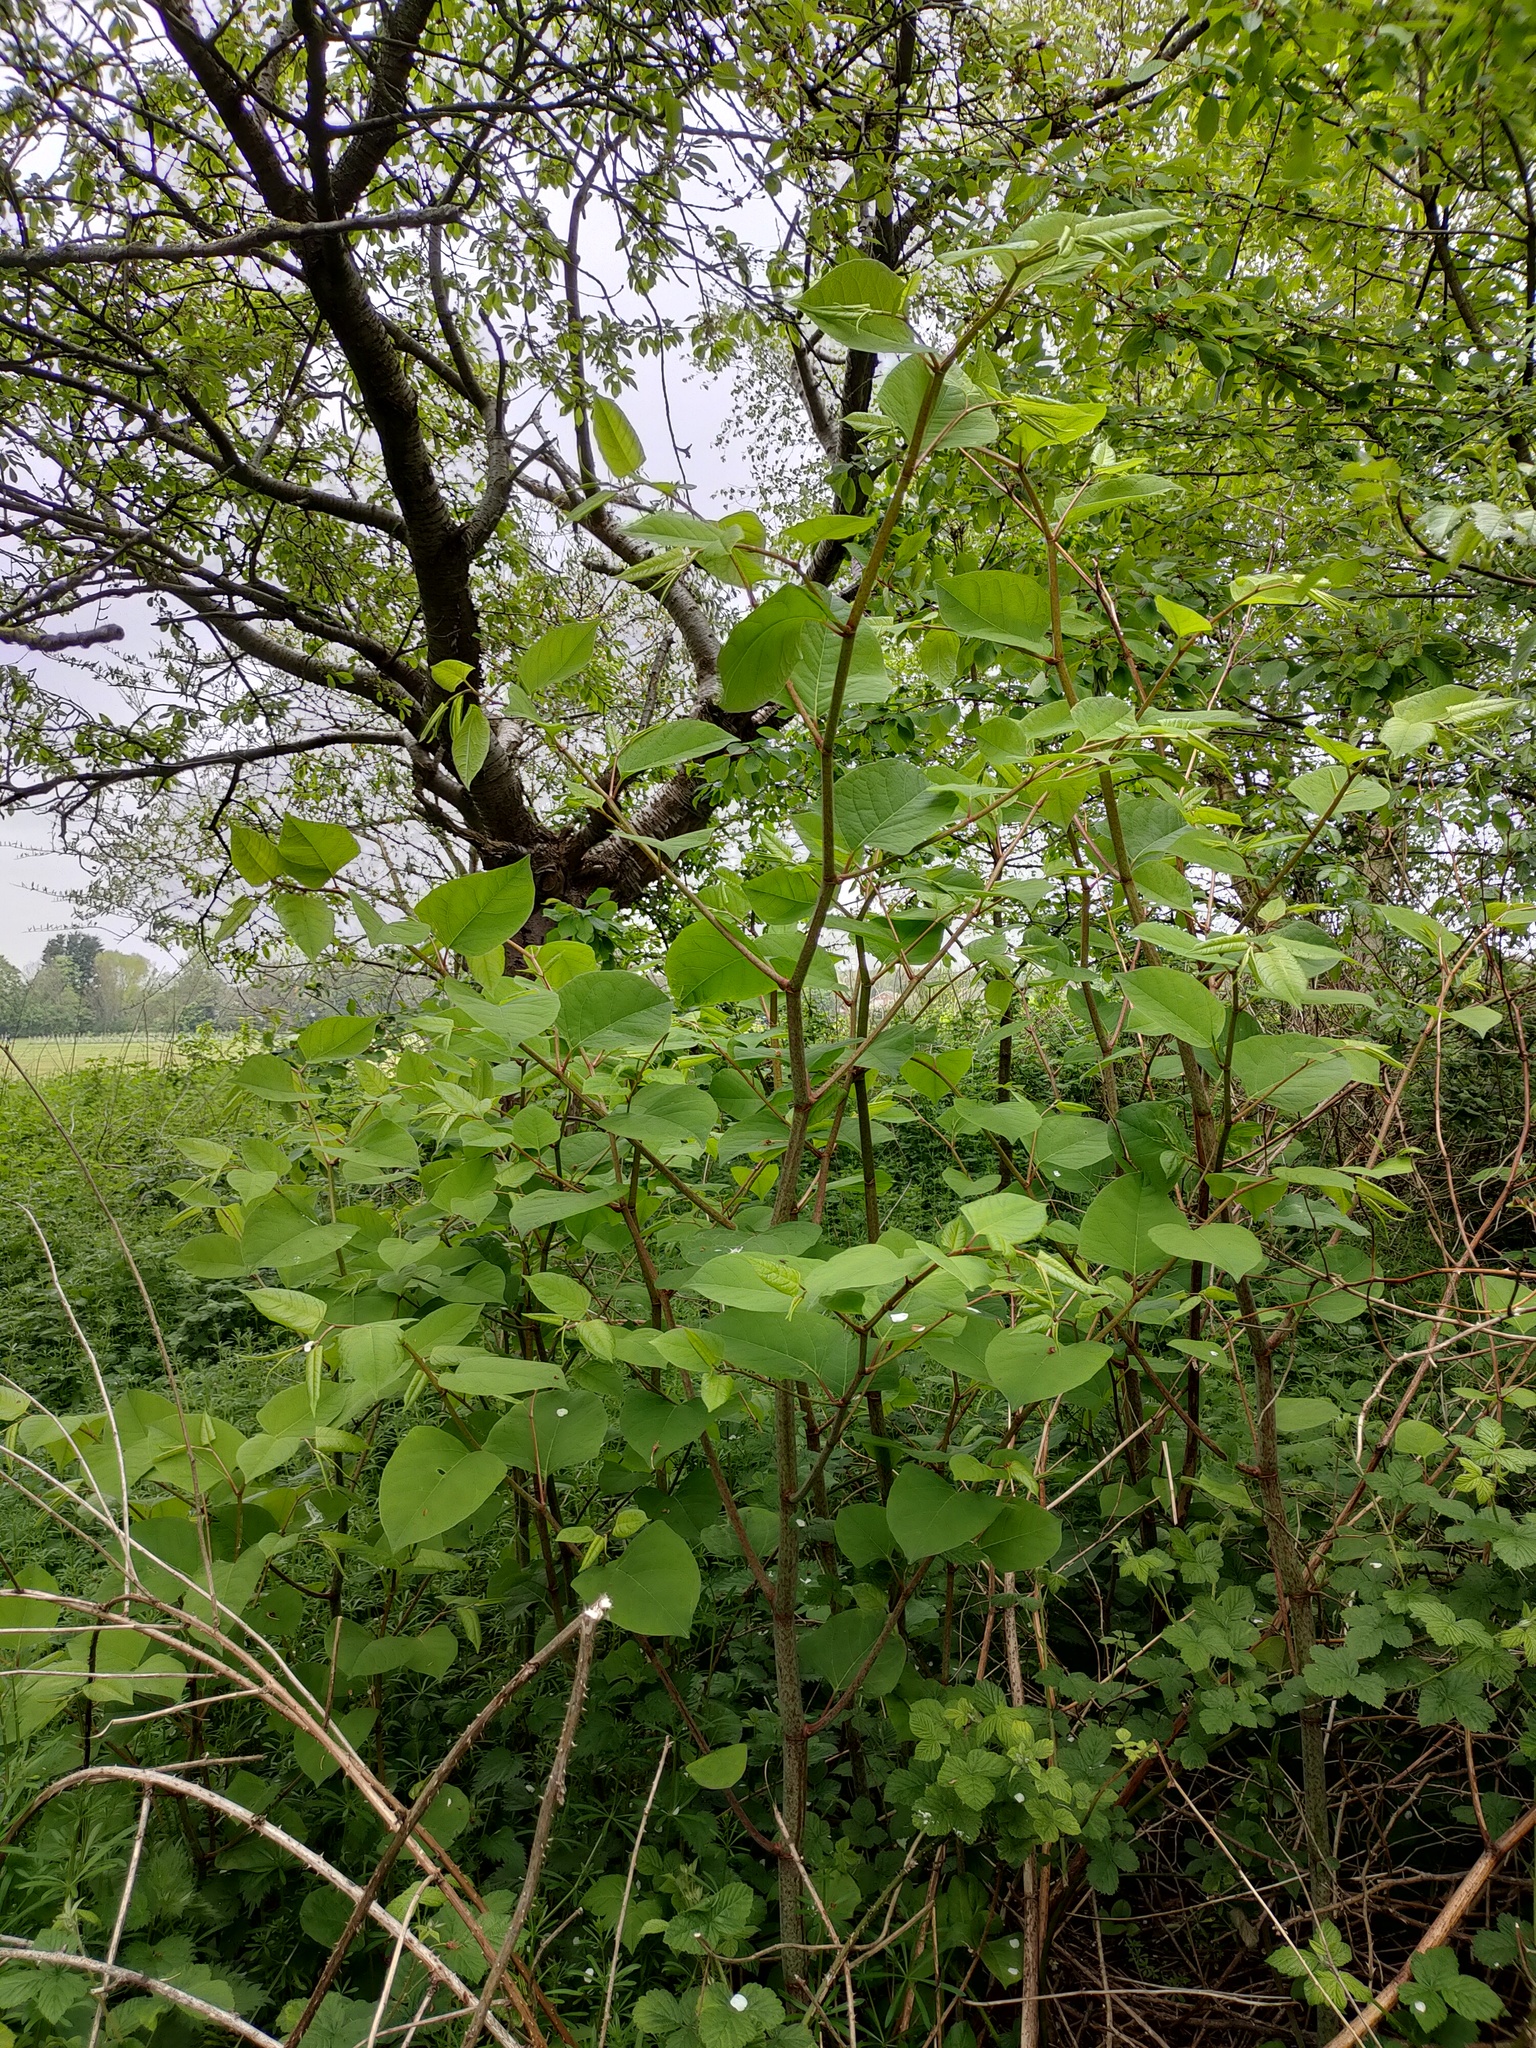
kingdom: Plantae
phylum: Tracheophyta
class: Magnoliopsida
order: Caryophyllales
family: Polygonaceae
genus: Reynoutria
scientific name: Reynoutria japonica
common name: Japanese knotweed
